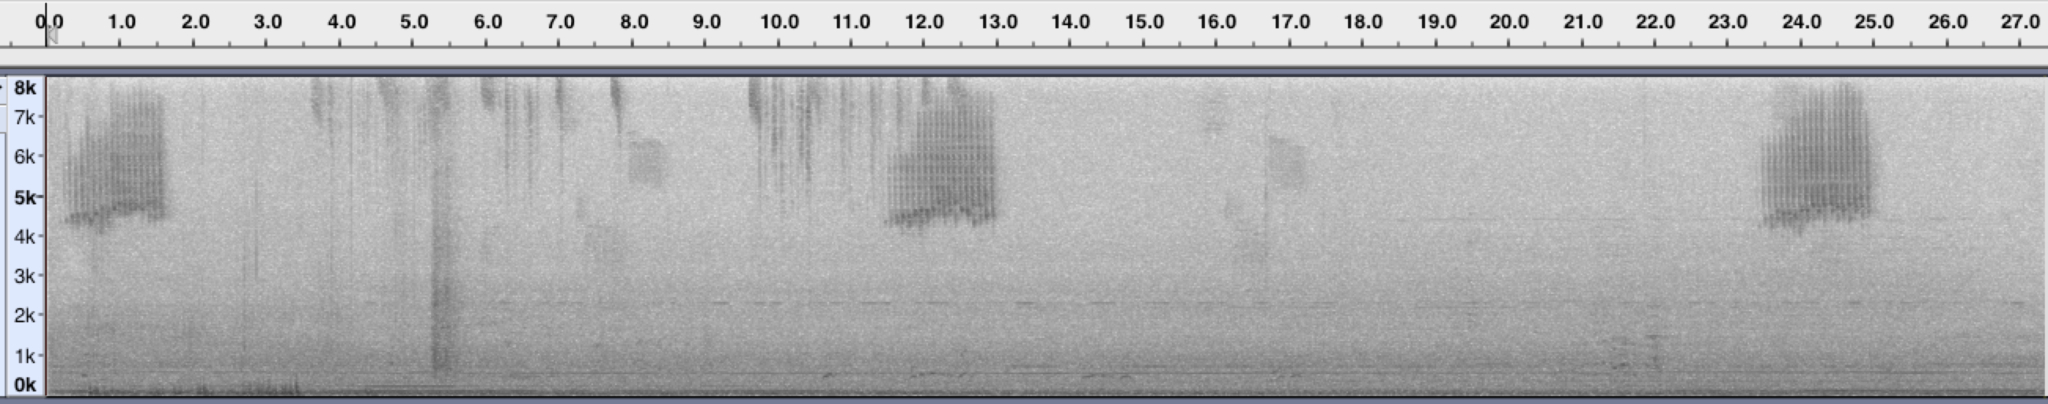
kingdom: Animalia
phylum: Chordata
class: Aves
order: Passeriformes
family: Parulidae
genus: Leiothlypis
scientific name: Leiothlypis celata
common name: Orange-crowned warbler
